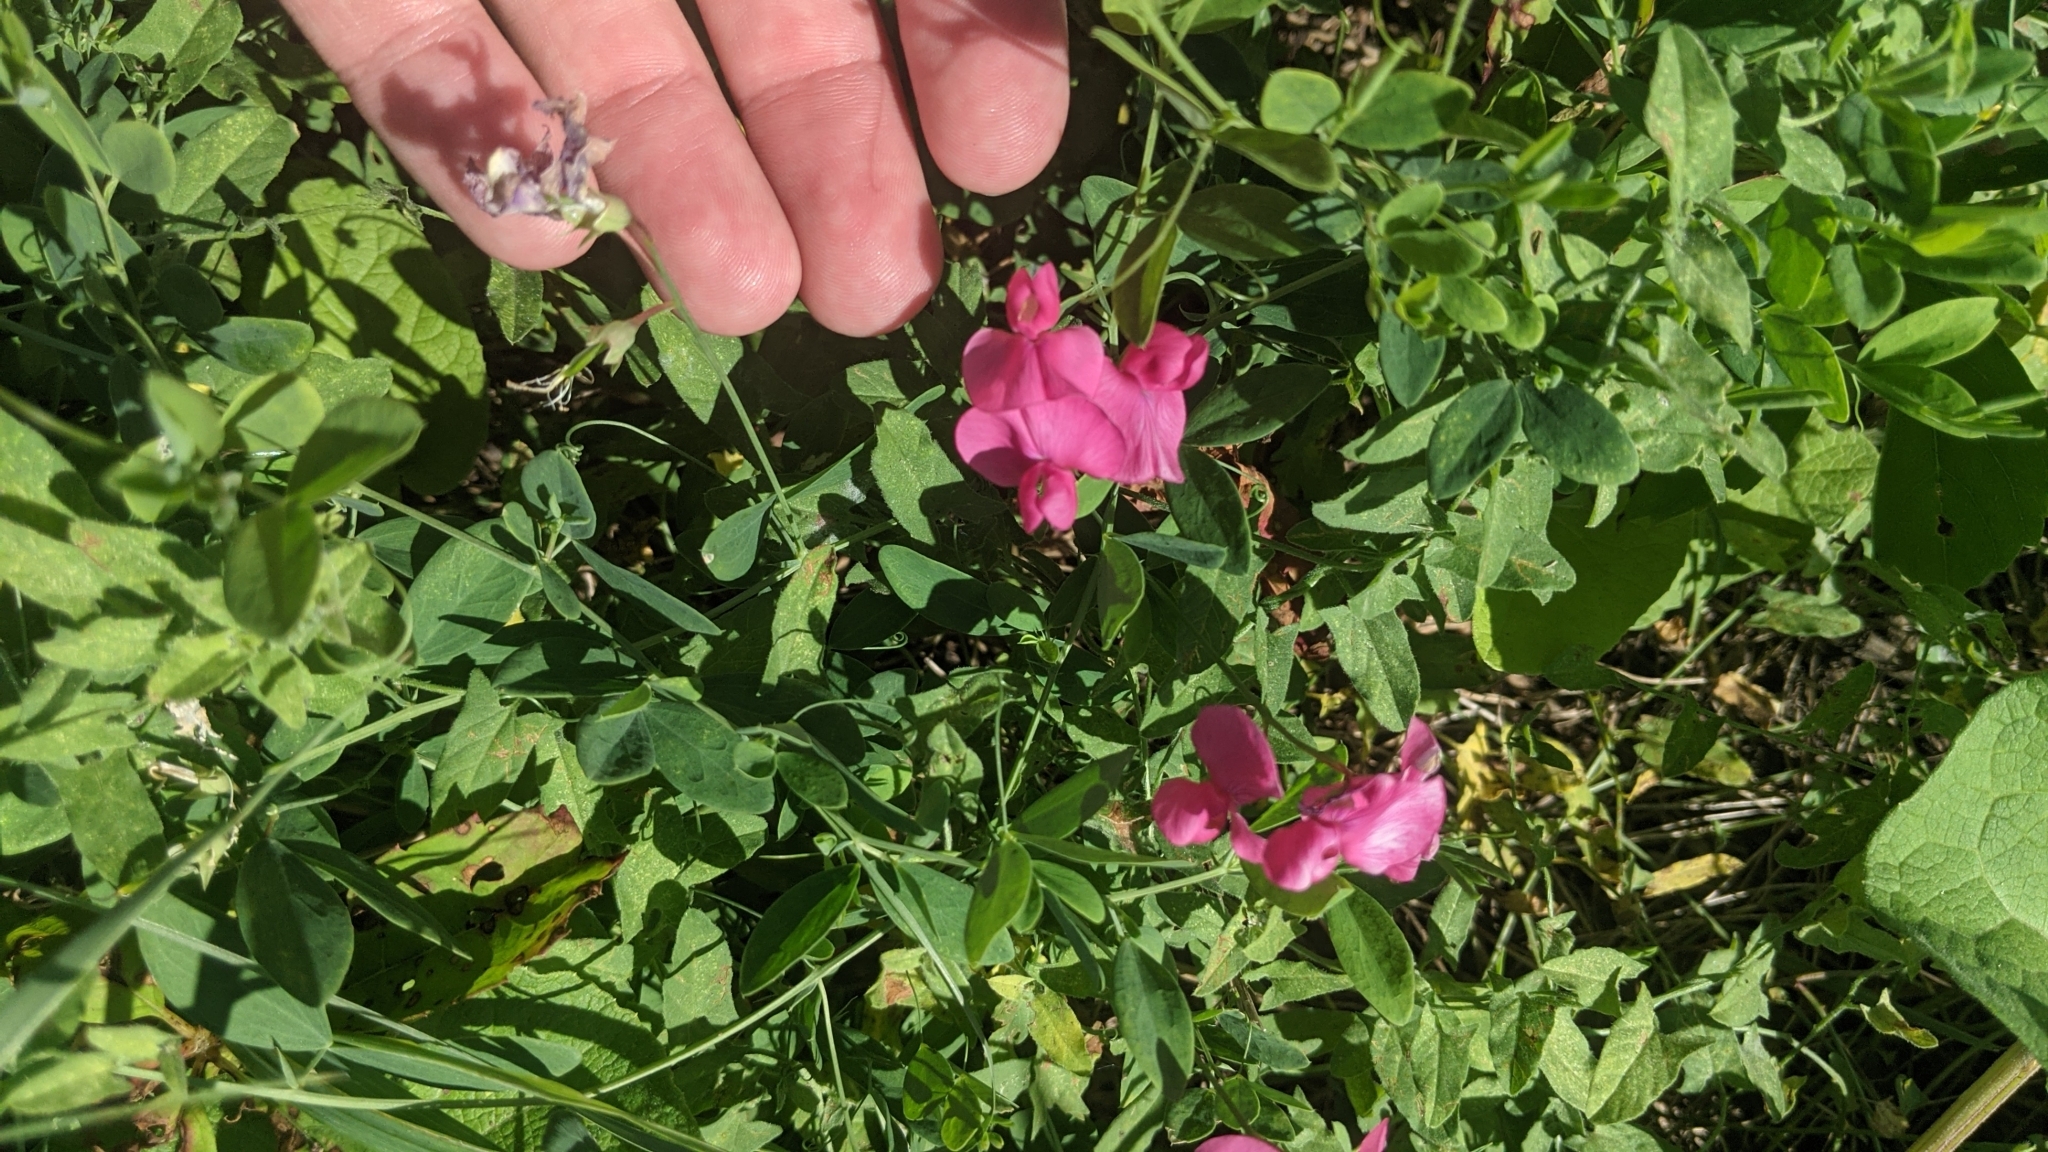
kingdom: Plantae
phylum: Tracheophyta
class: Magnoliopsida
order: Fabales
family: Fabaceae
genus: Lathyrus
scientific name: Lathyrus tuberosus
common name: Tuberous pea
